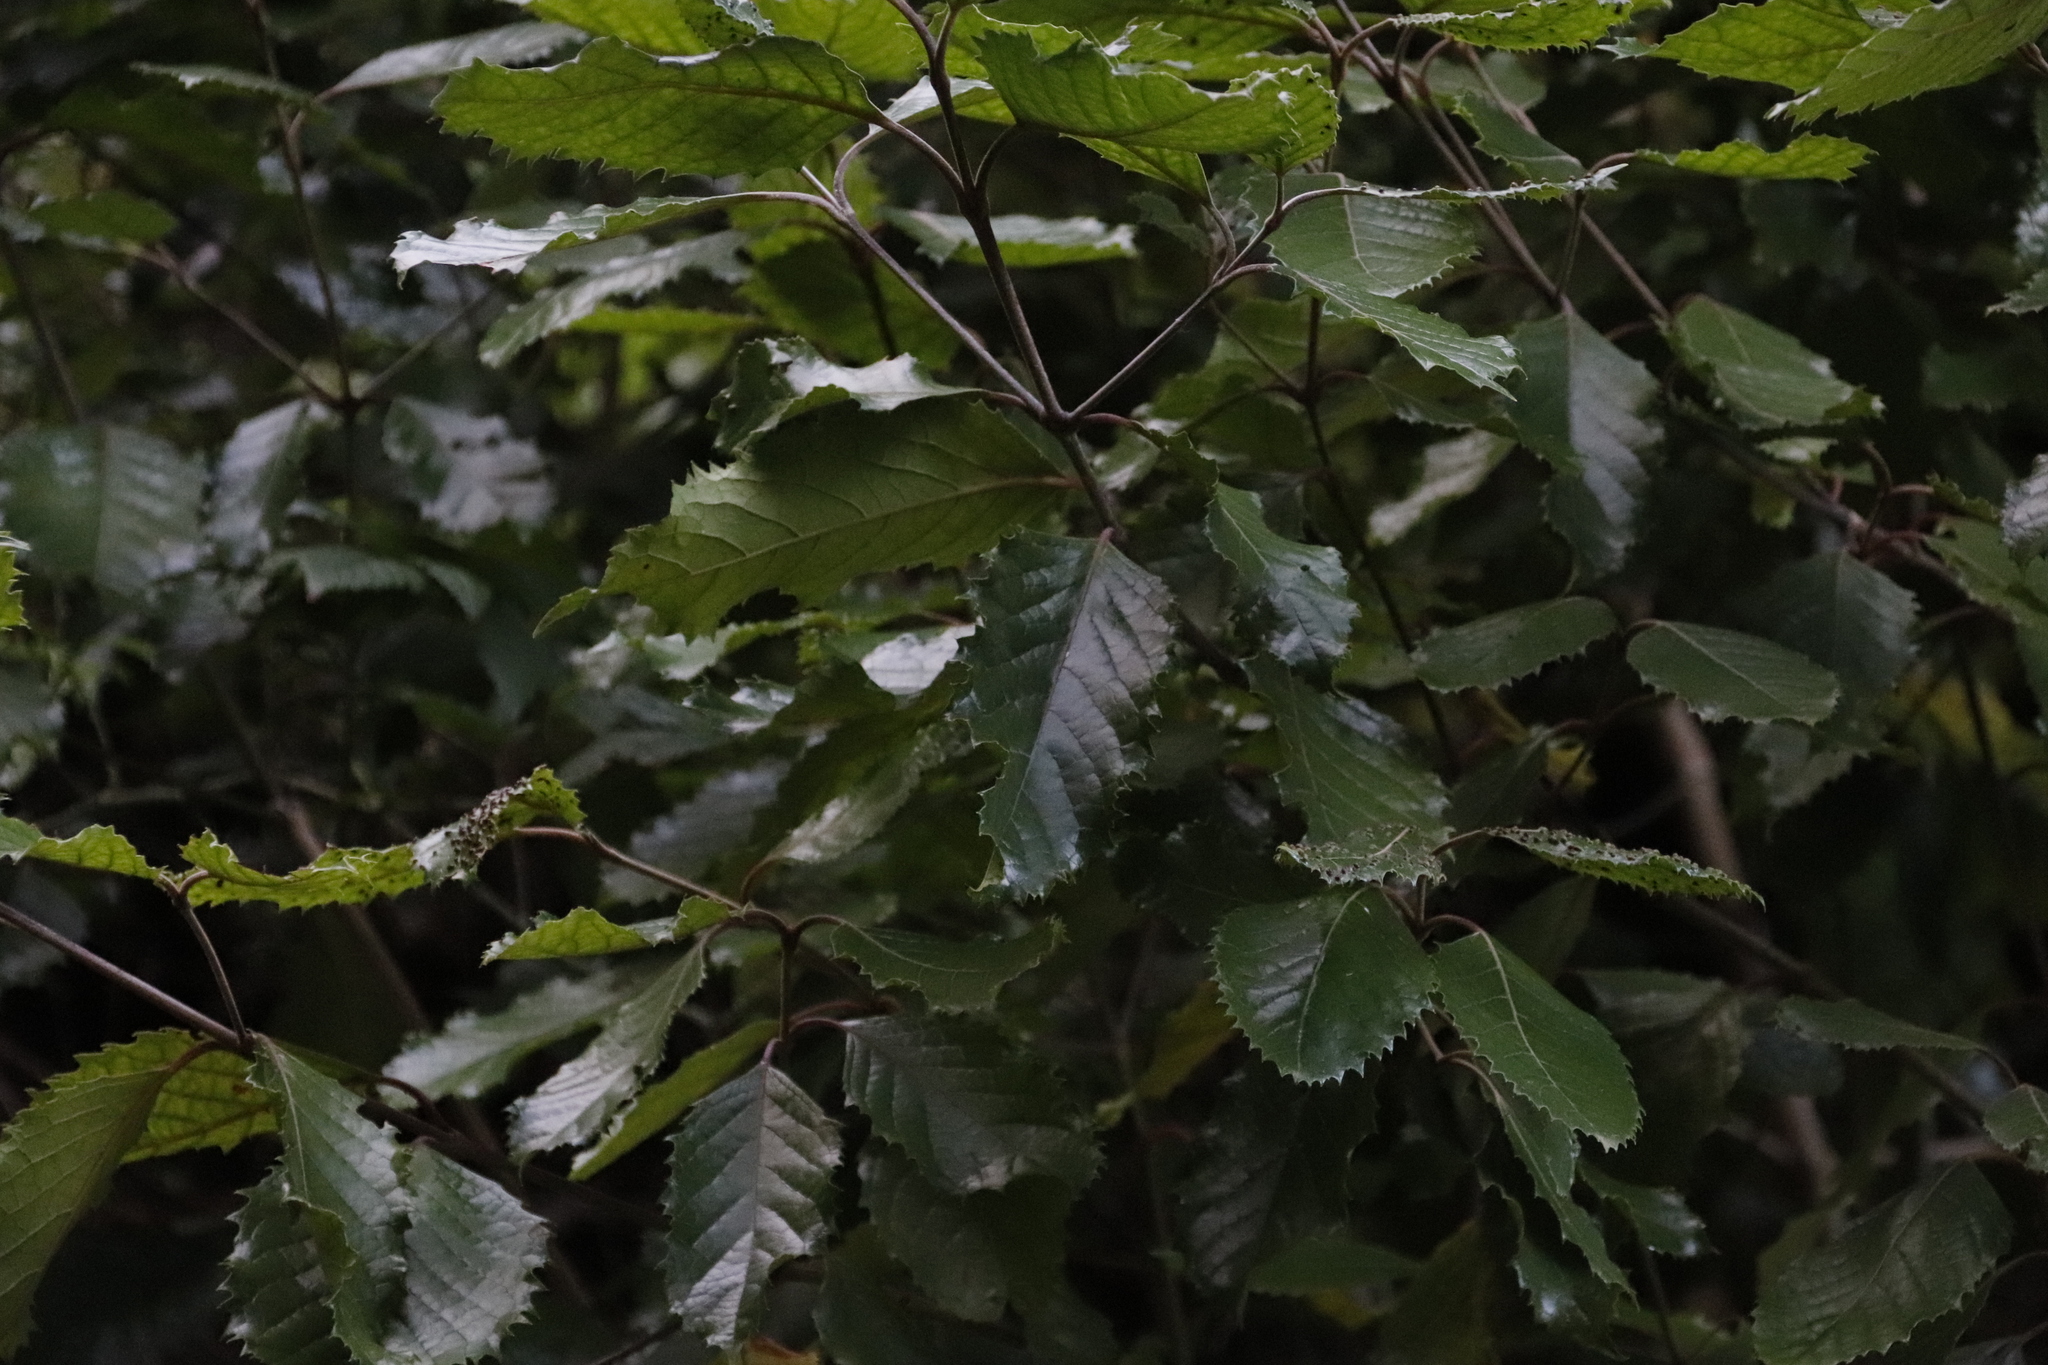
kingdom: Plantae
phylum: Tracheophyta
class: Magnoliopsida
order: Cornales
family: Curtisiaceae
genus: Curtisia
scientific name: Curtisia dentata
